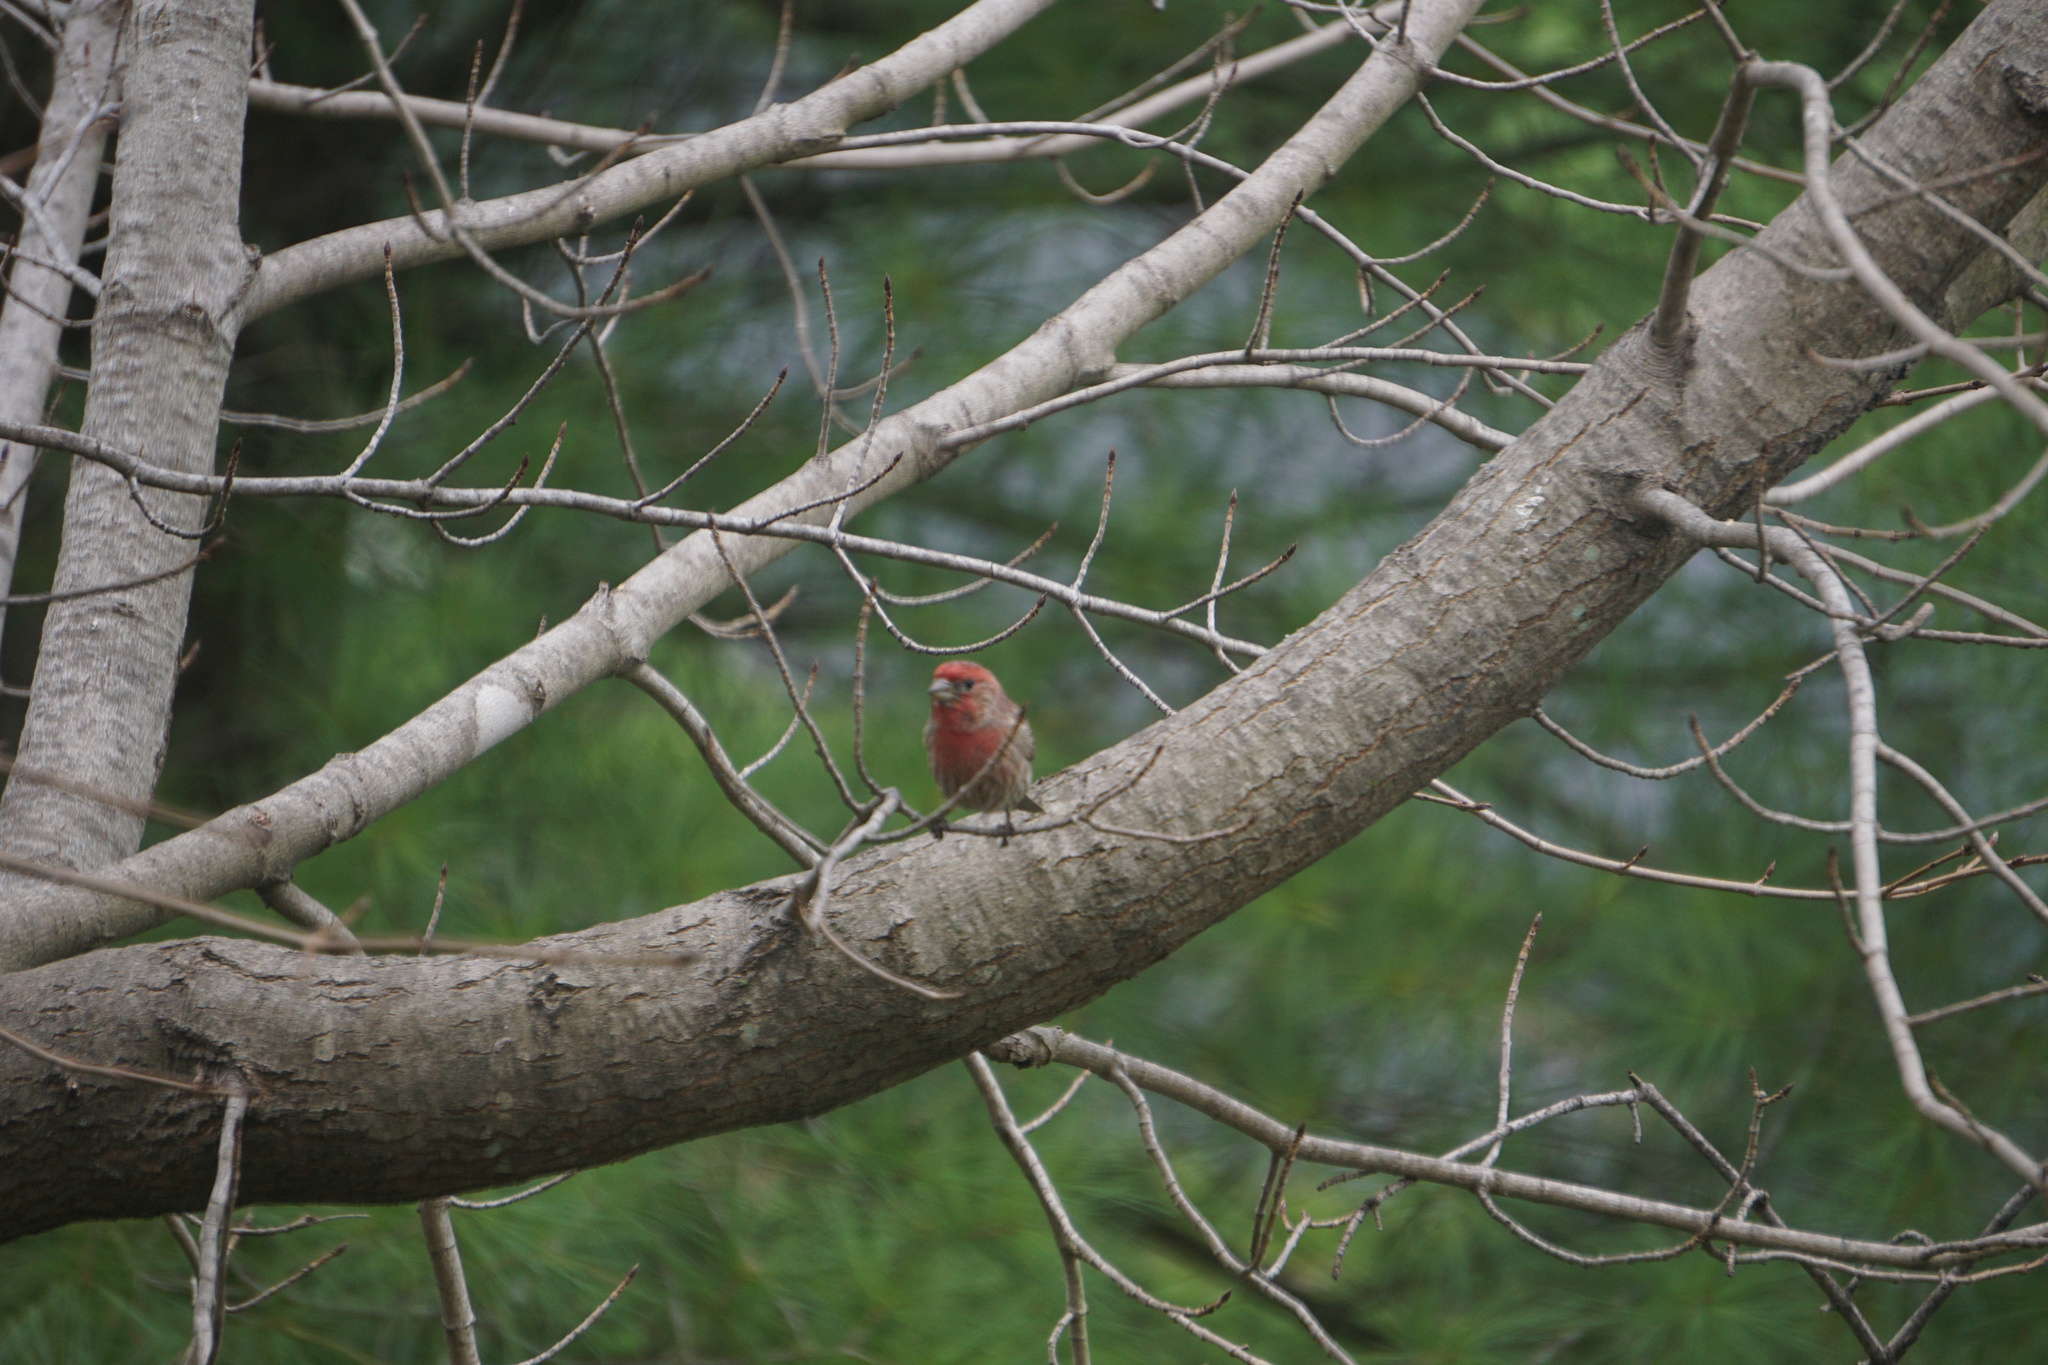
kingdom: Animalia
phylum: Chordata
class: Aves
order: Passeriformes
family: Fringillidae
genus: Haemorhous
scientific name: Haemorhous mexicanus
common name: House finch
